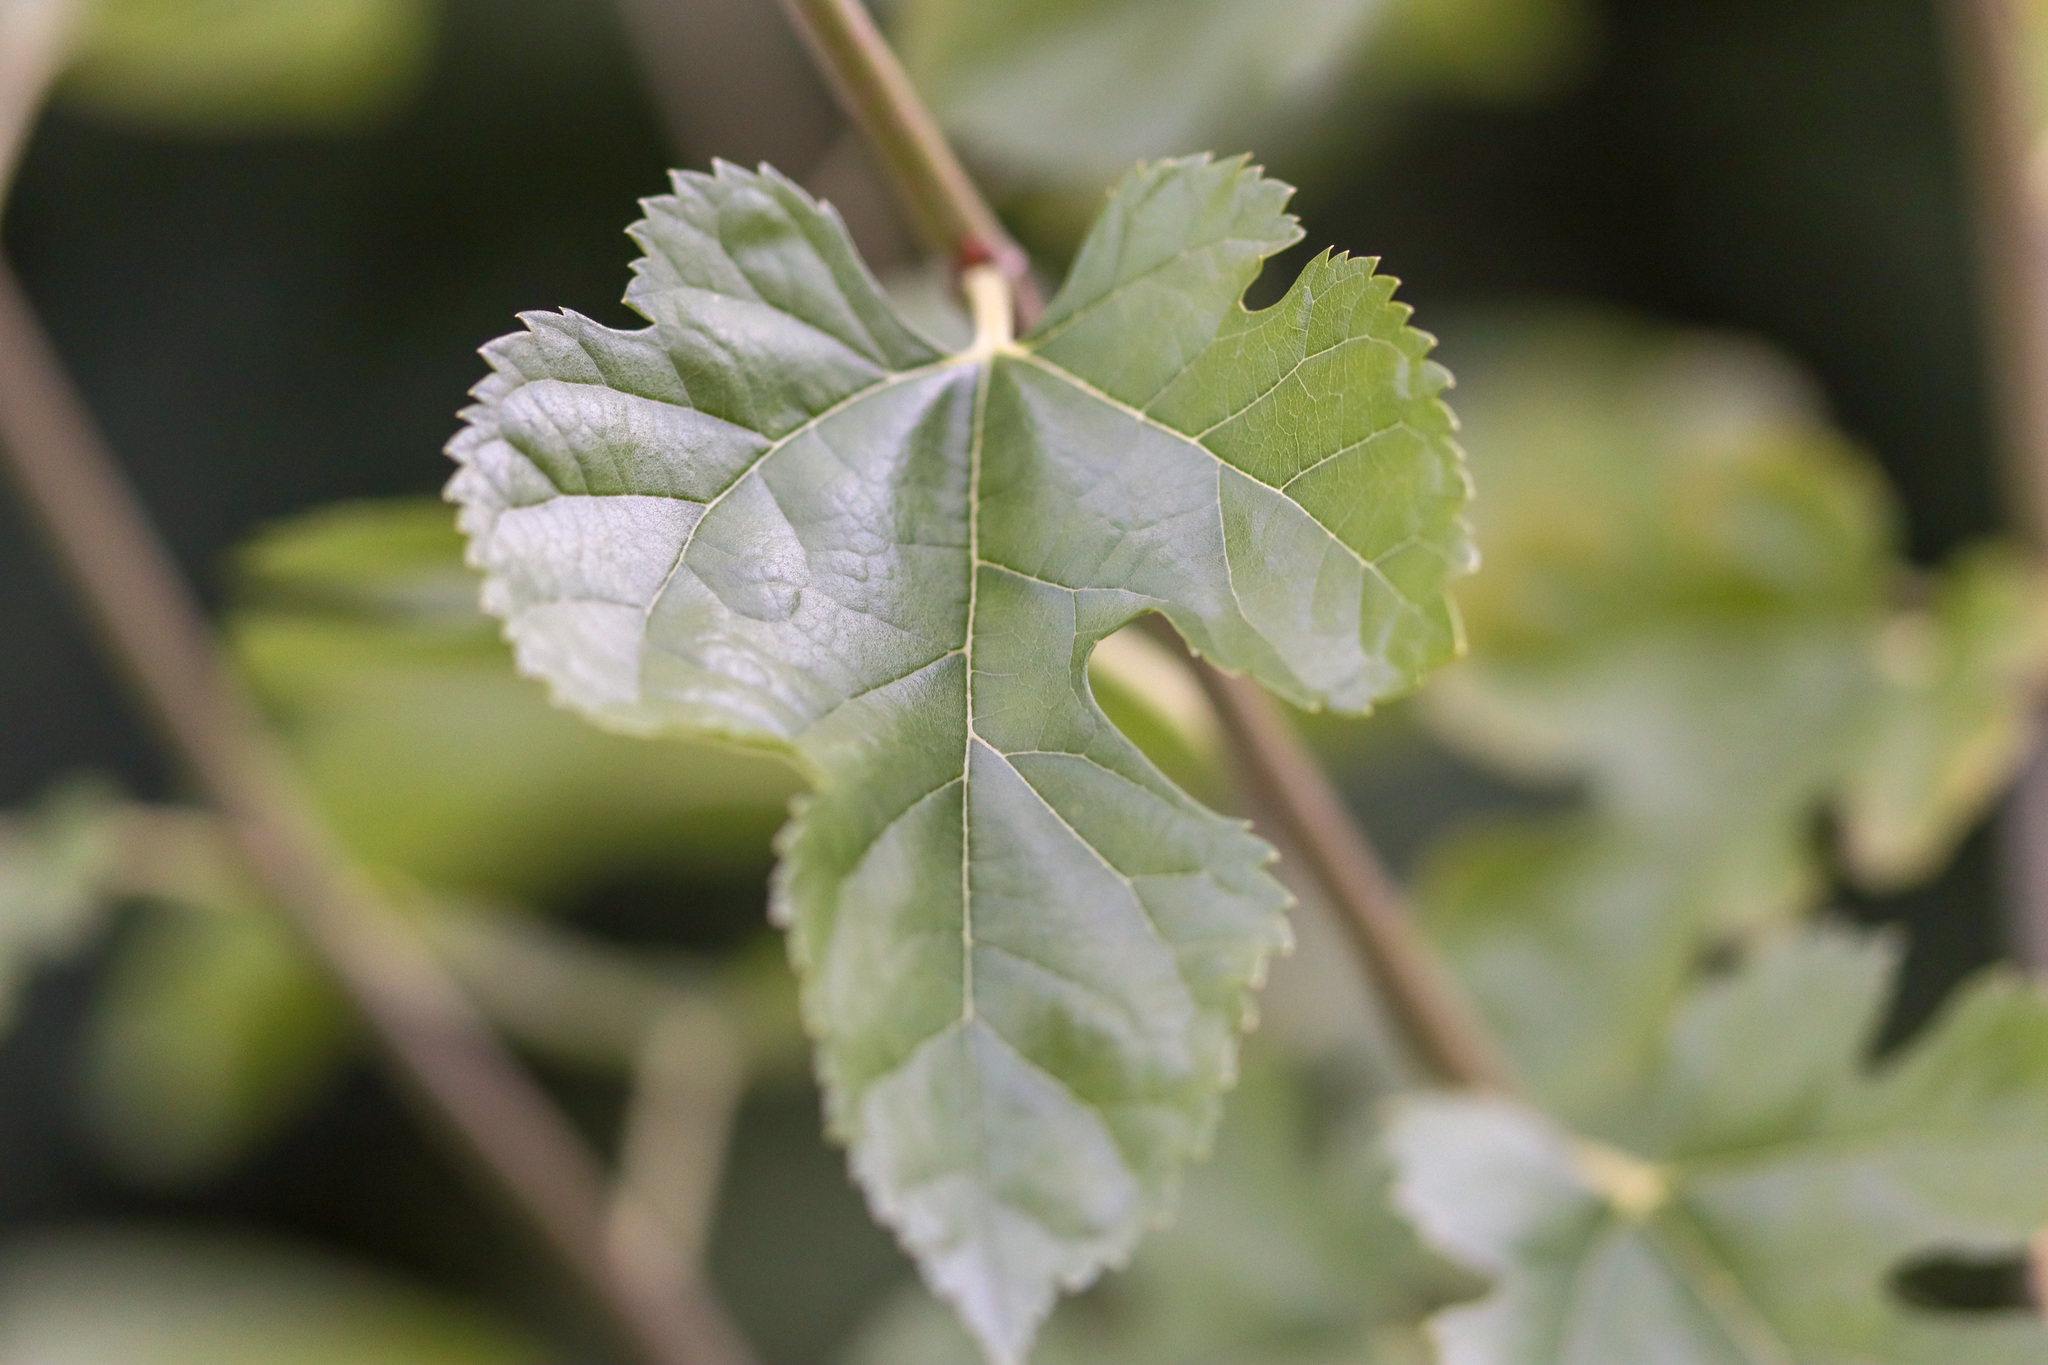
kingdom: Plantae
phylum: Tracheophyta
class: Magnoliopsida
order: Rosales
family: Moraceae
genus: Morus
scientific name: Morus alba
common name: White mulberry
